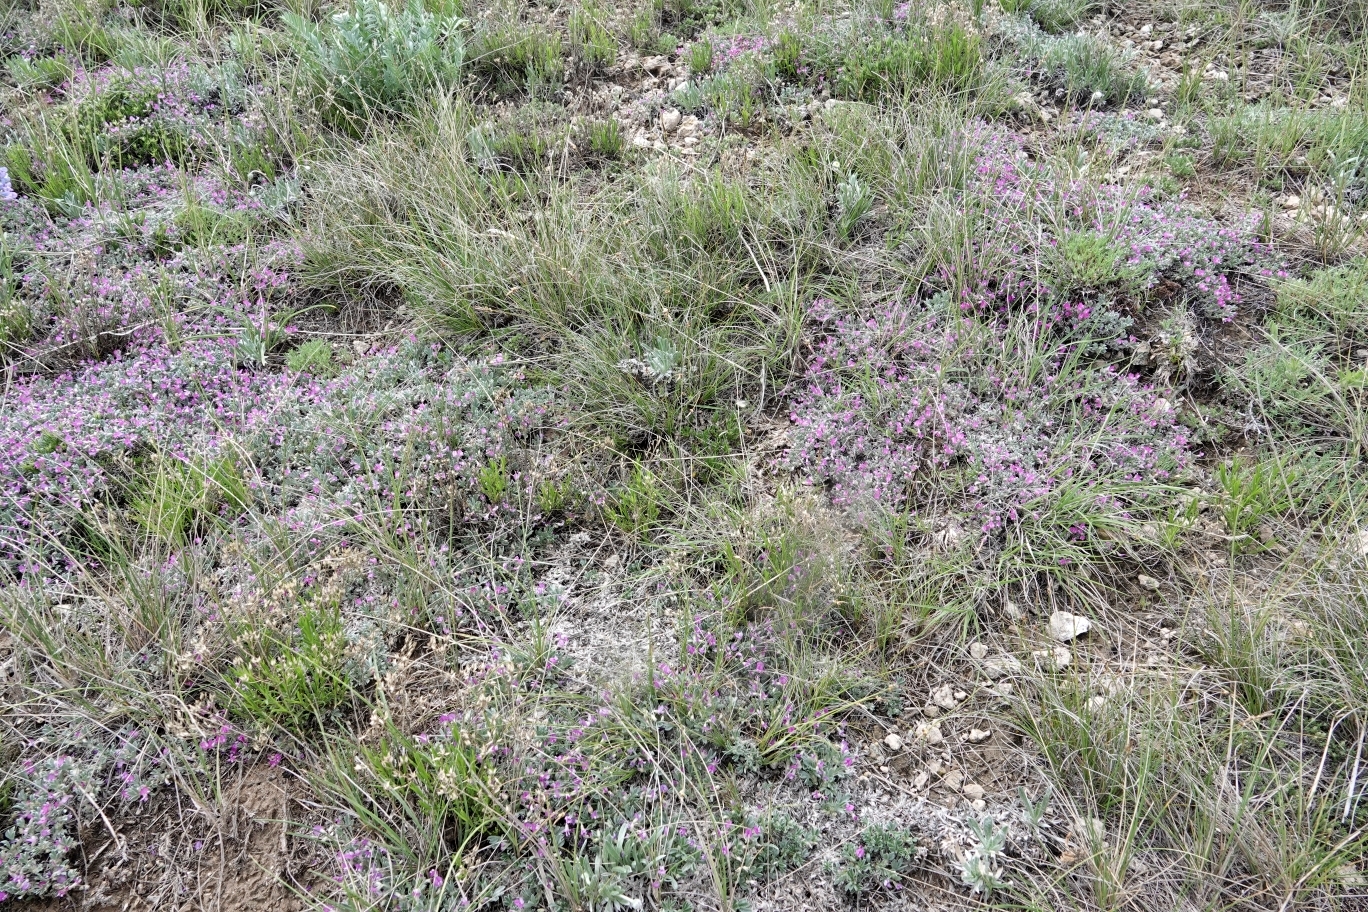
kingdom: Plantae
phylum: Tracheophyta
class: Magnoliopsida
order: Fabales
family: Fabaceae
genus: Astragalus
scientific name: Astragalus sericoleucus
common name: Silky orophaca
